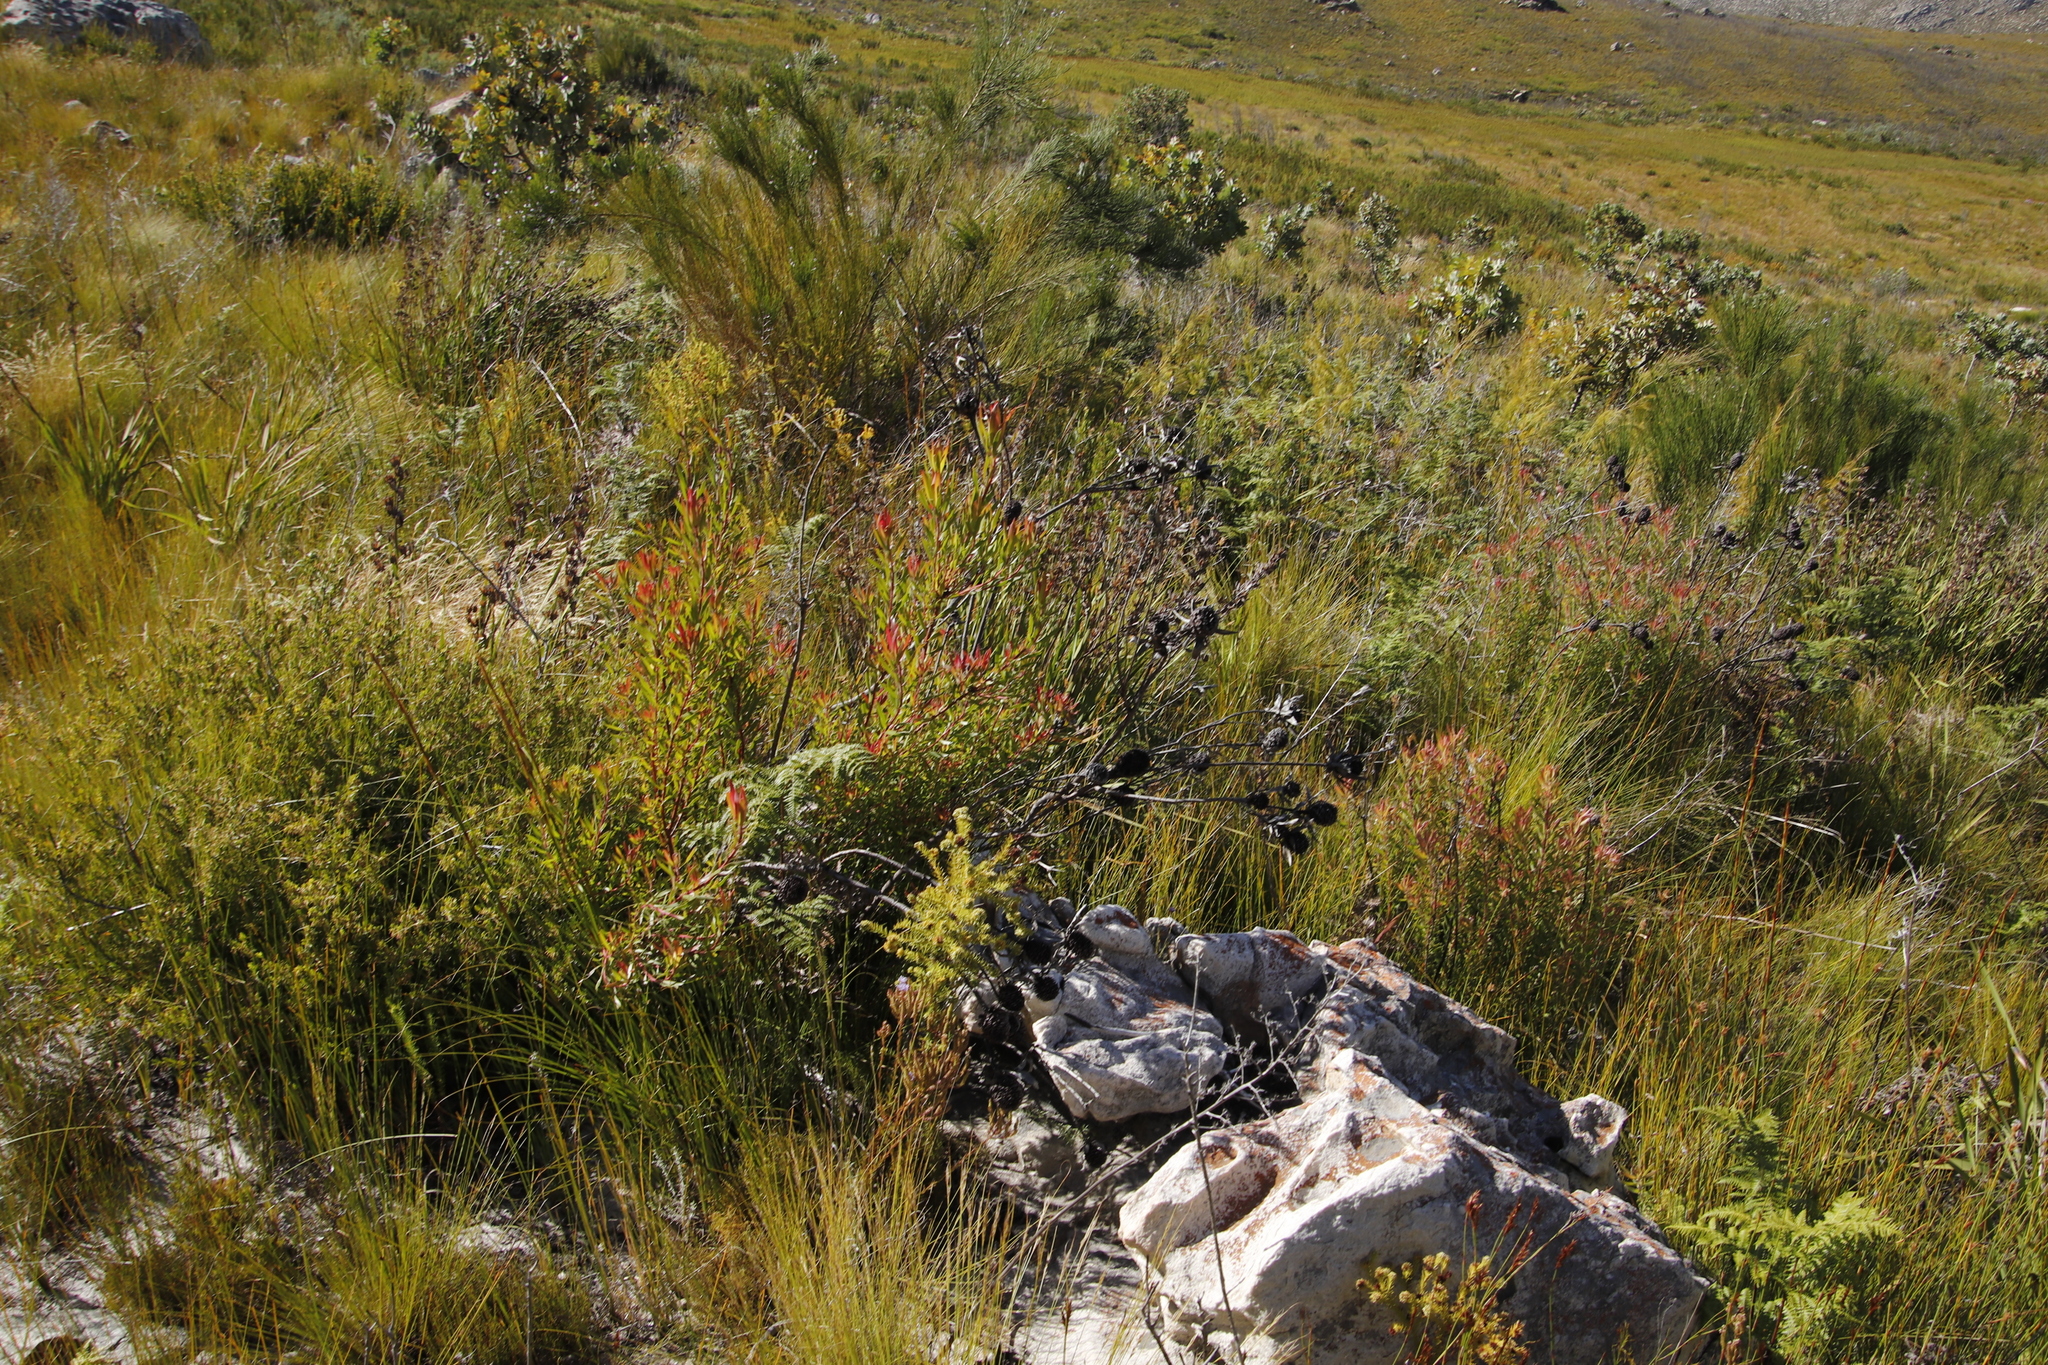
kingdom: Plantae
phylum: Tracheophyta
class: Magnoliopsida
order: Proteales
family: Proteaceae
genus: Leucadendron
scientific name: Leucadendron spissifolium
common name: Spear-leaf conebush
